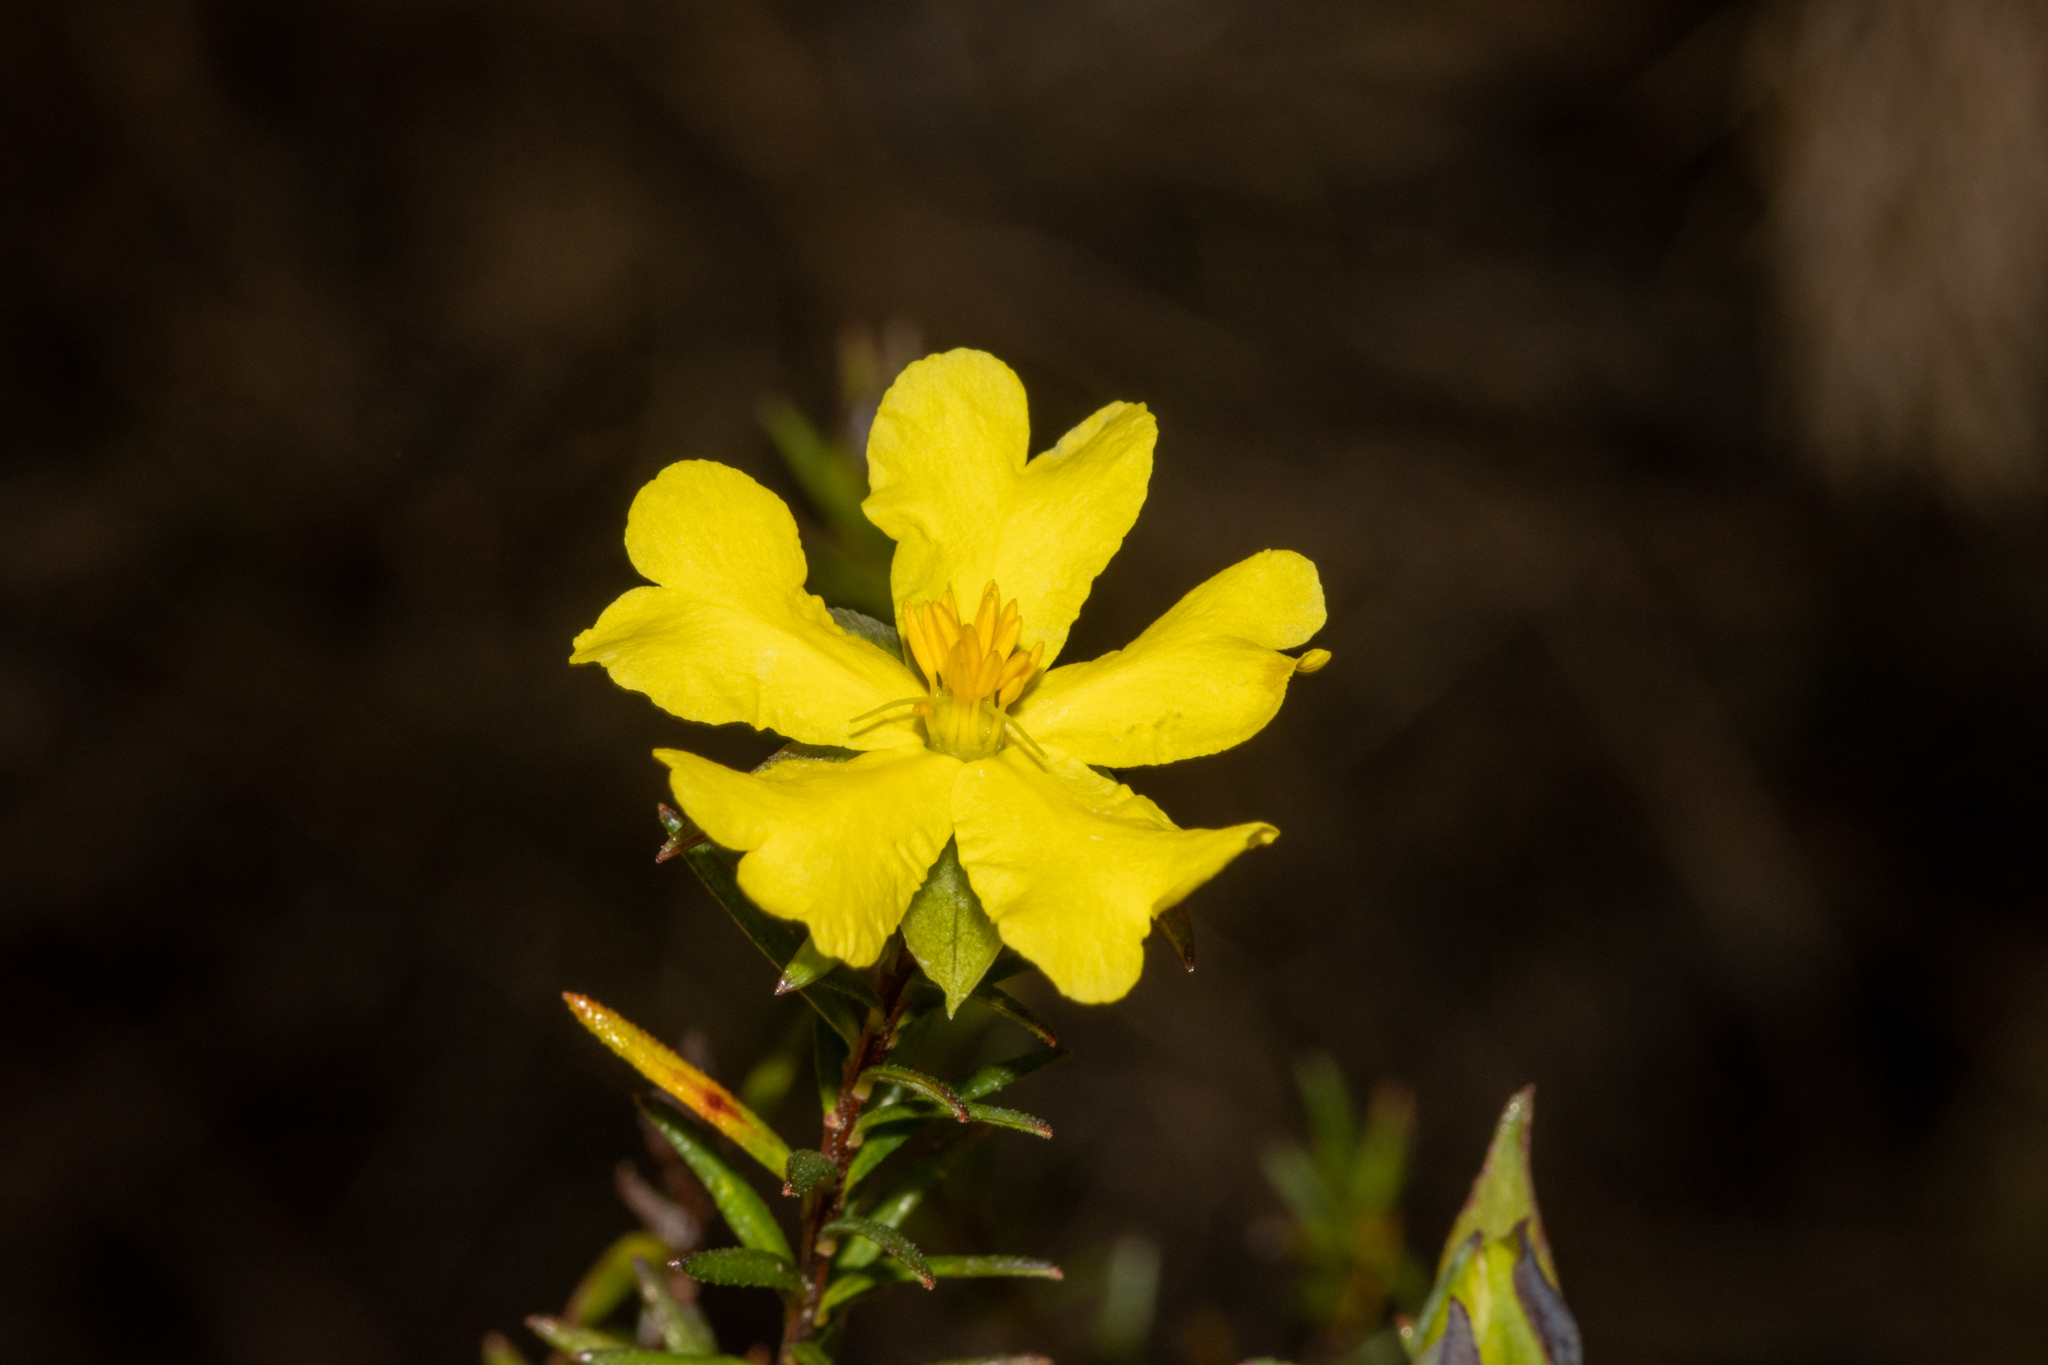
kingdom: Plantae
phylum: Tracheophyta
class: Magnoliopsida
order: Dilleniales
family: Dilleniaceae
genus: Hibbertia
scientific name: Hibbertia ericifolia
